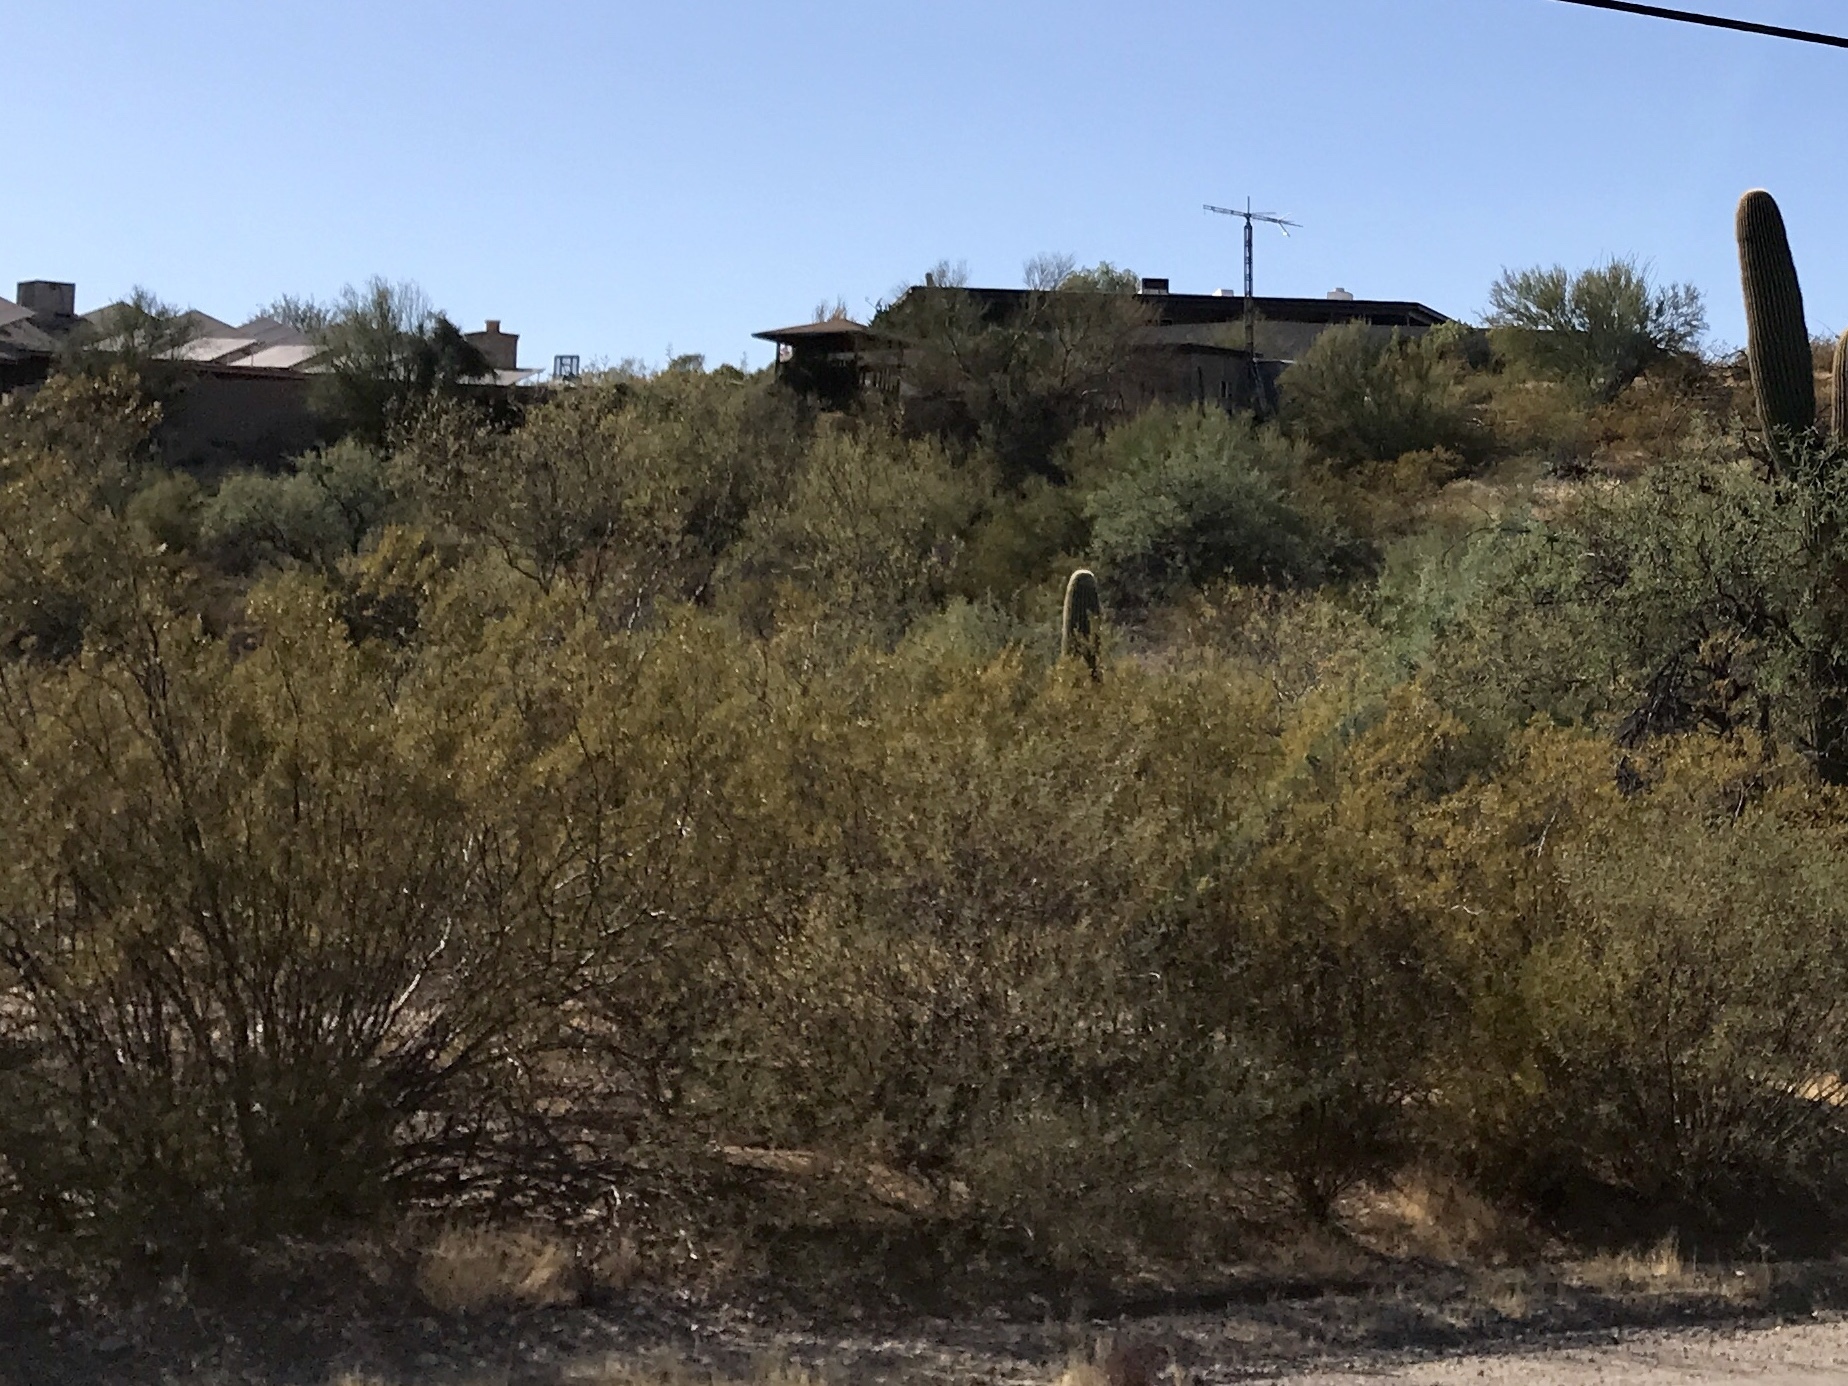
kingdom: Plantae
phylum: Tracheophyta
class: Magnoliopsida
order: Zygophyllales
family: Zygophyllaceae
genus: Larrea
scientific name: Larrea tridentata
